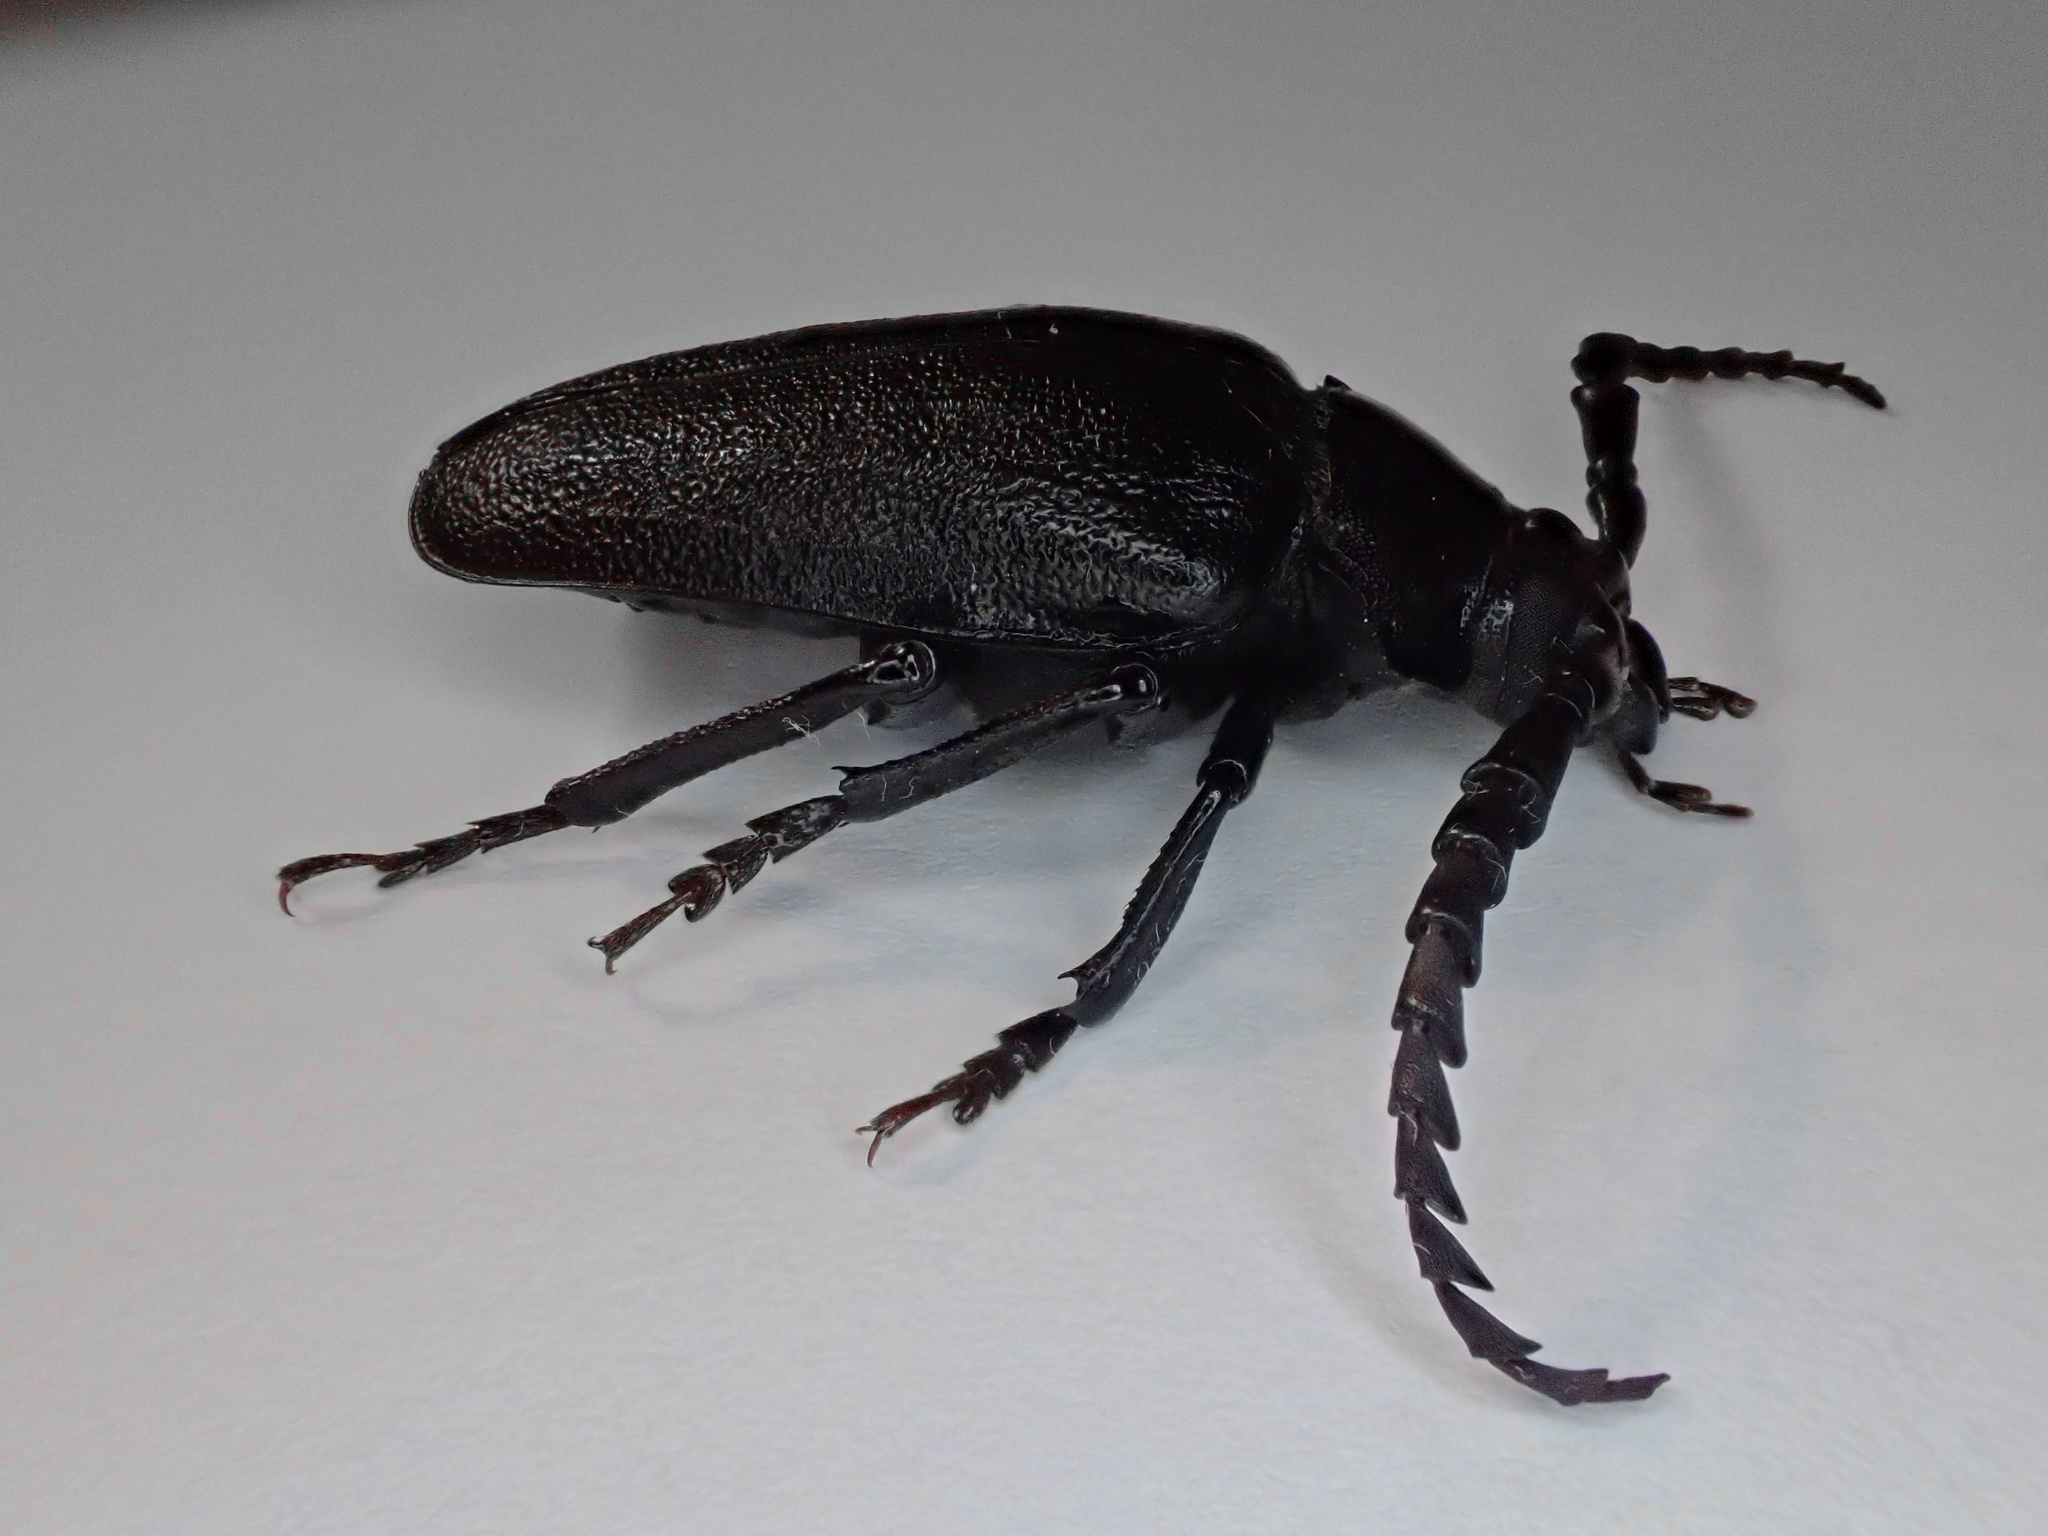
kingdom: Animalia
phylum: Arthropoda
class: Insecta
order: Coleoptera
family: Cerambycidae
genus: Prionus
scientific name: Prionus laticollis
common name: Broad necked prionus
